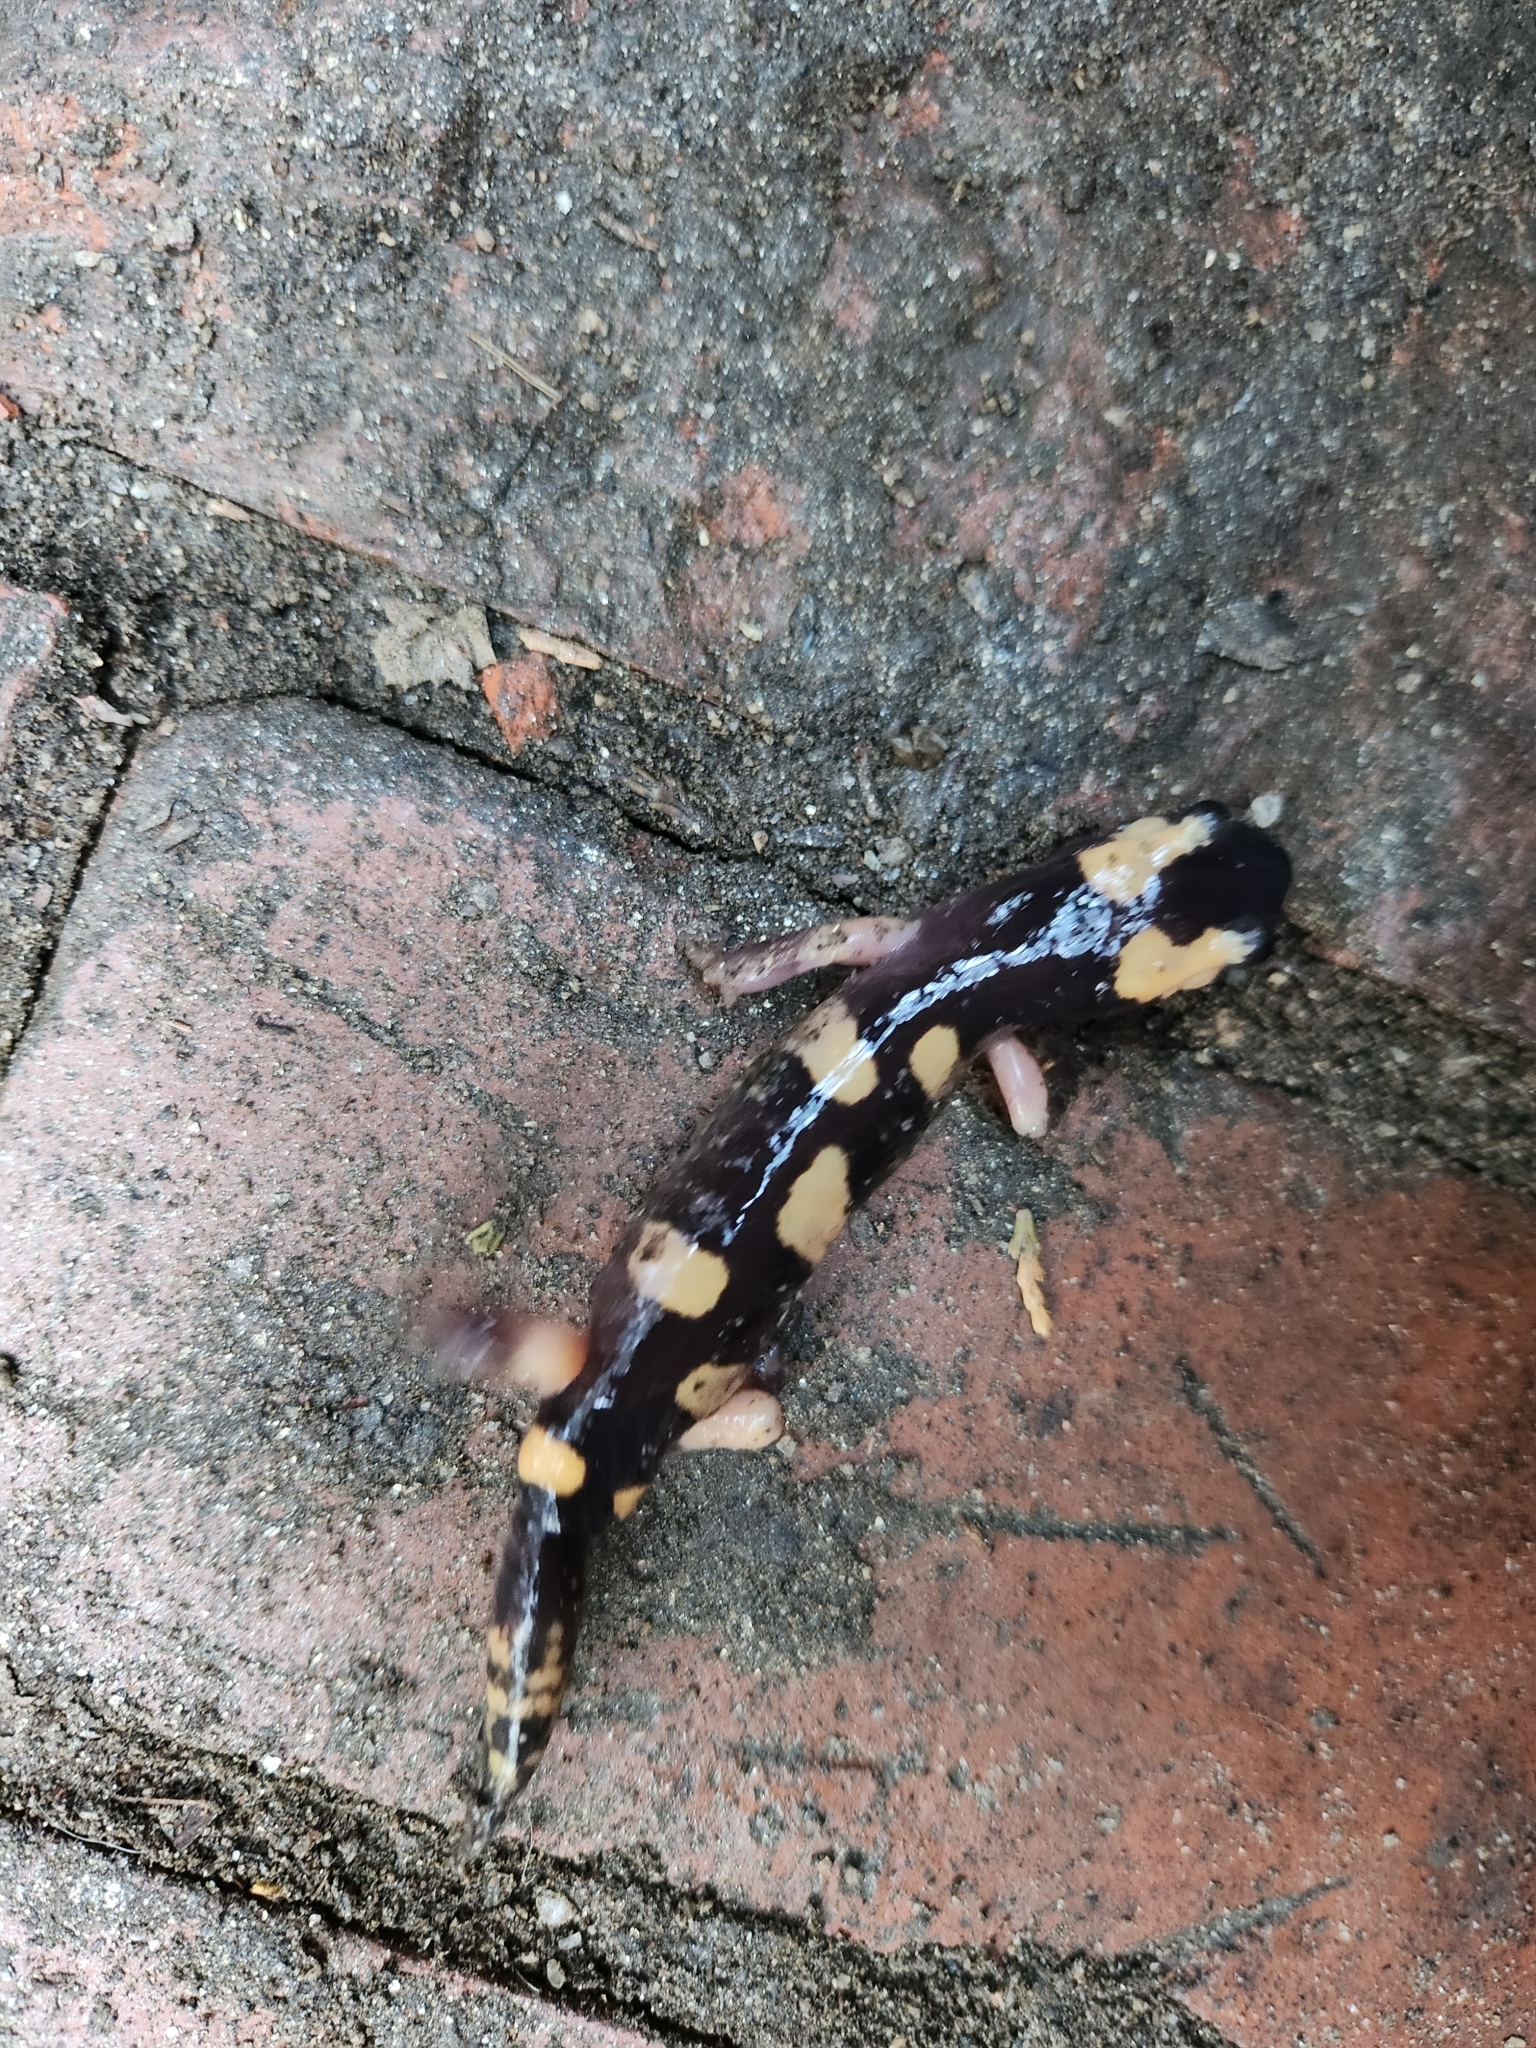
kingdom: Animalia
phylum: Chordata
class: Amphibia
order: Caudata
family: Plethodontidae
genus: Ensatina
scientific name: Ensatina eschscholtzii
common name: Ensatina
